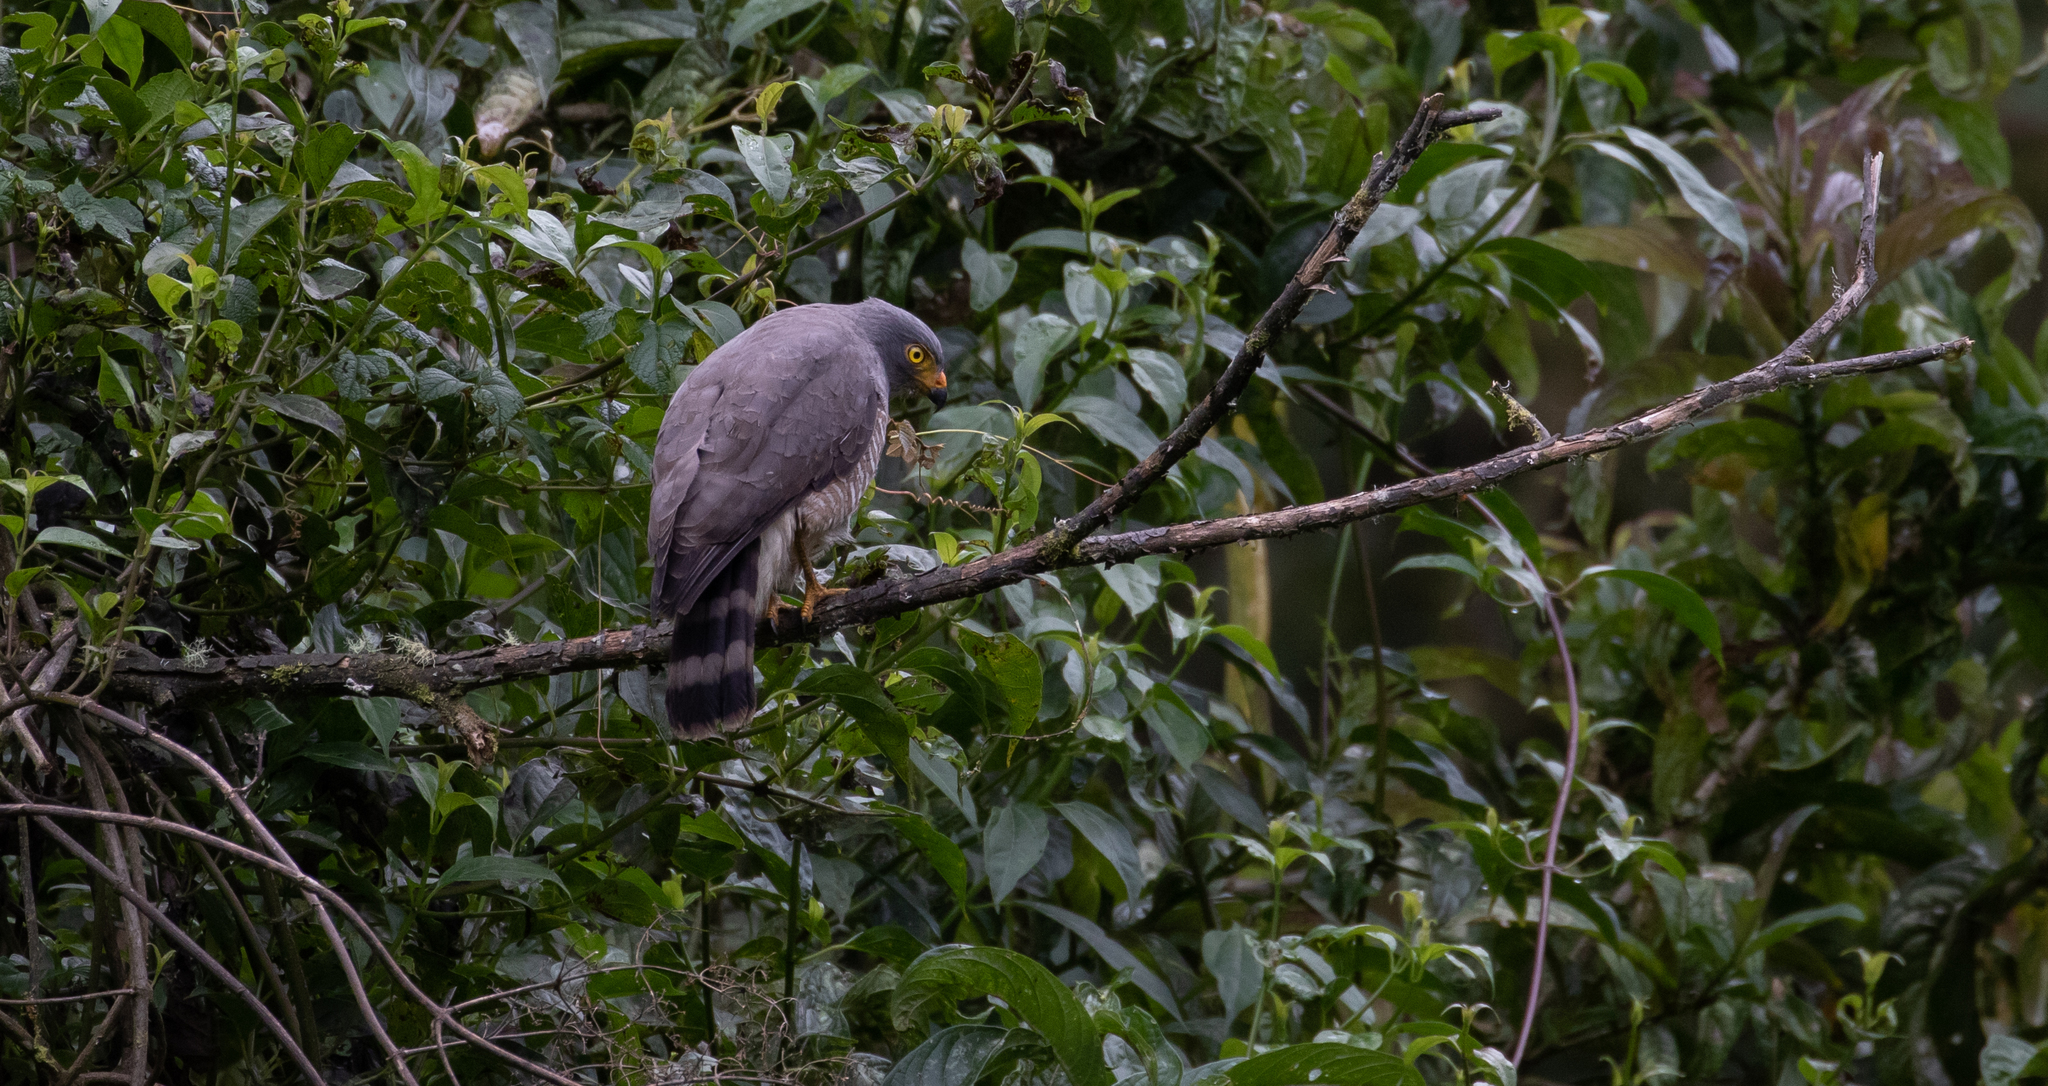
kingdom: Animalia
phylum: Chordata
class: Aves
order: Accipitriformes
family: Accipitridae
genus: Rupornis
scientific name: Rupornis magnirostris
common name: Roadside hawk
